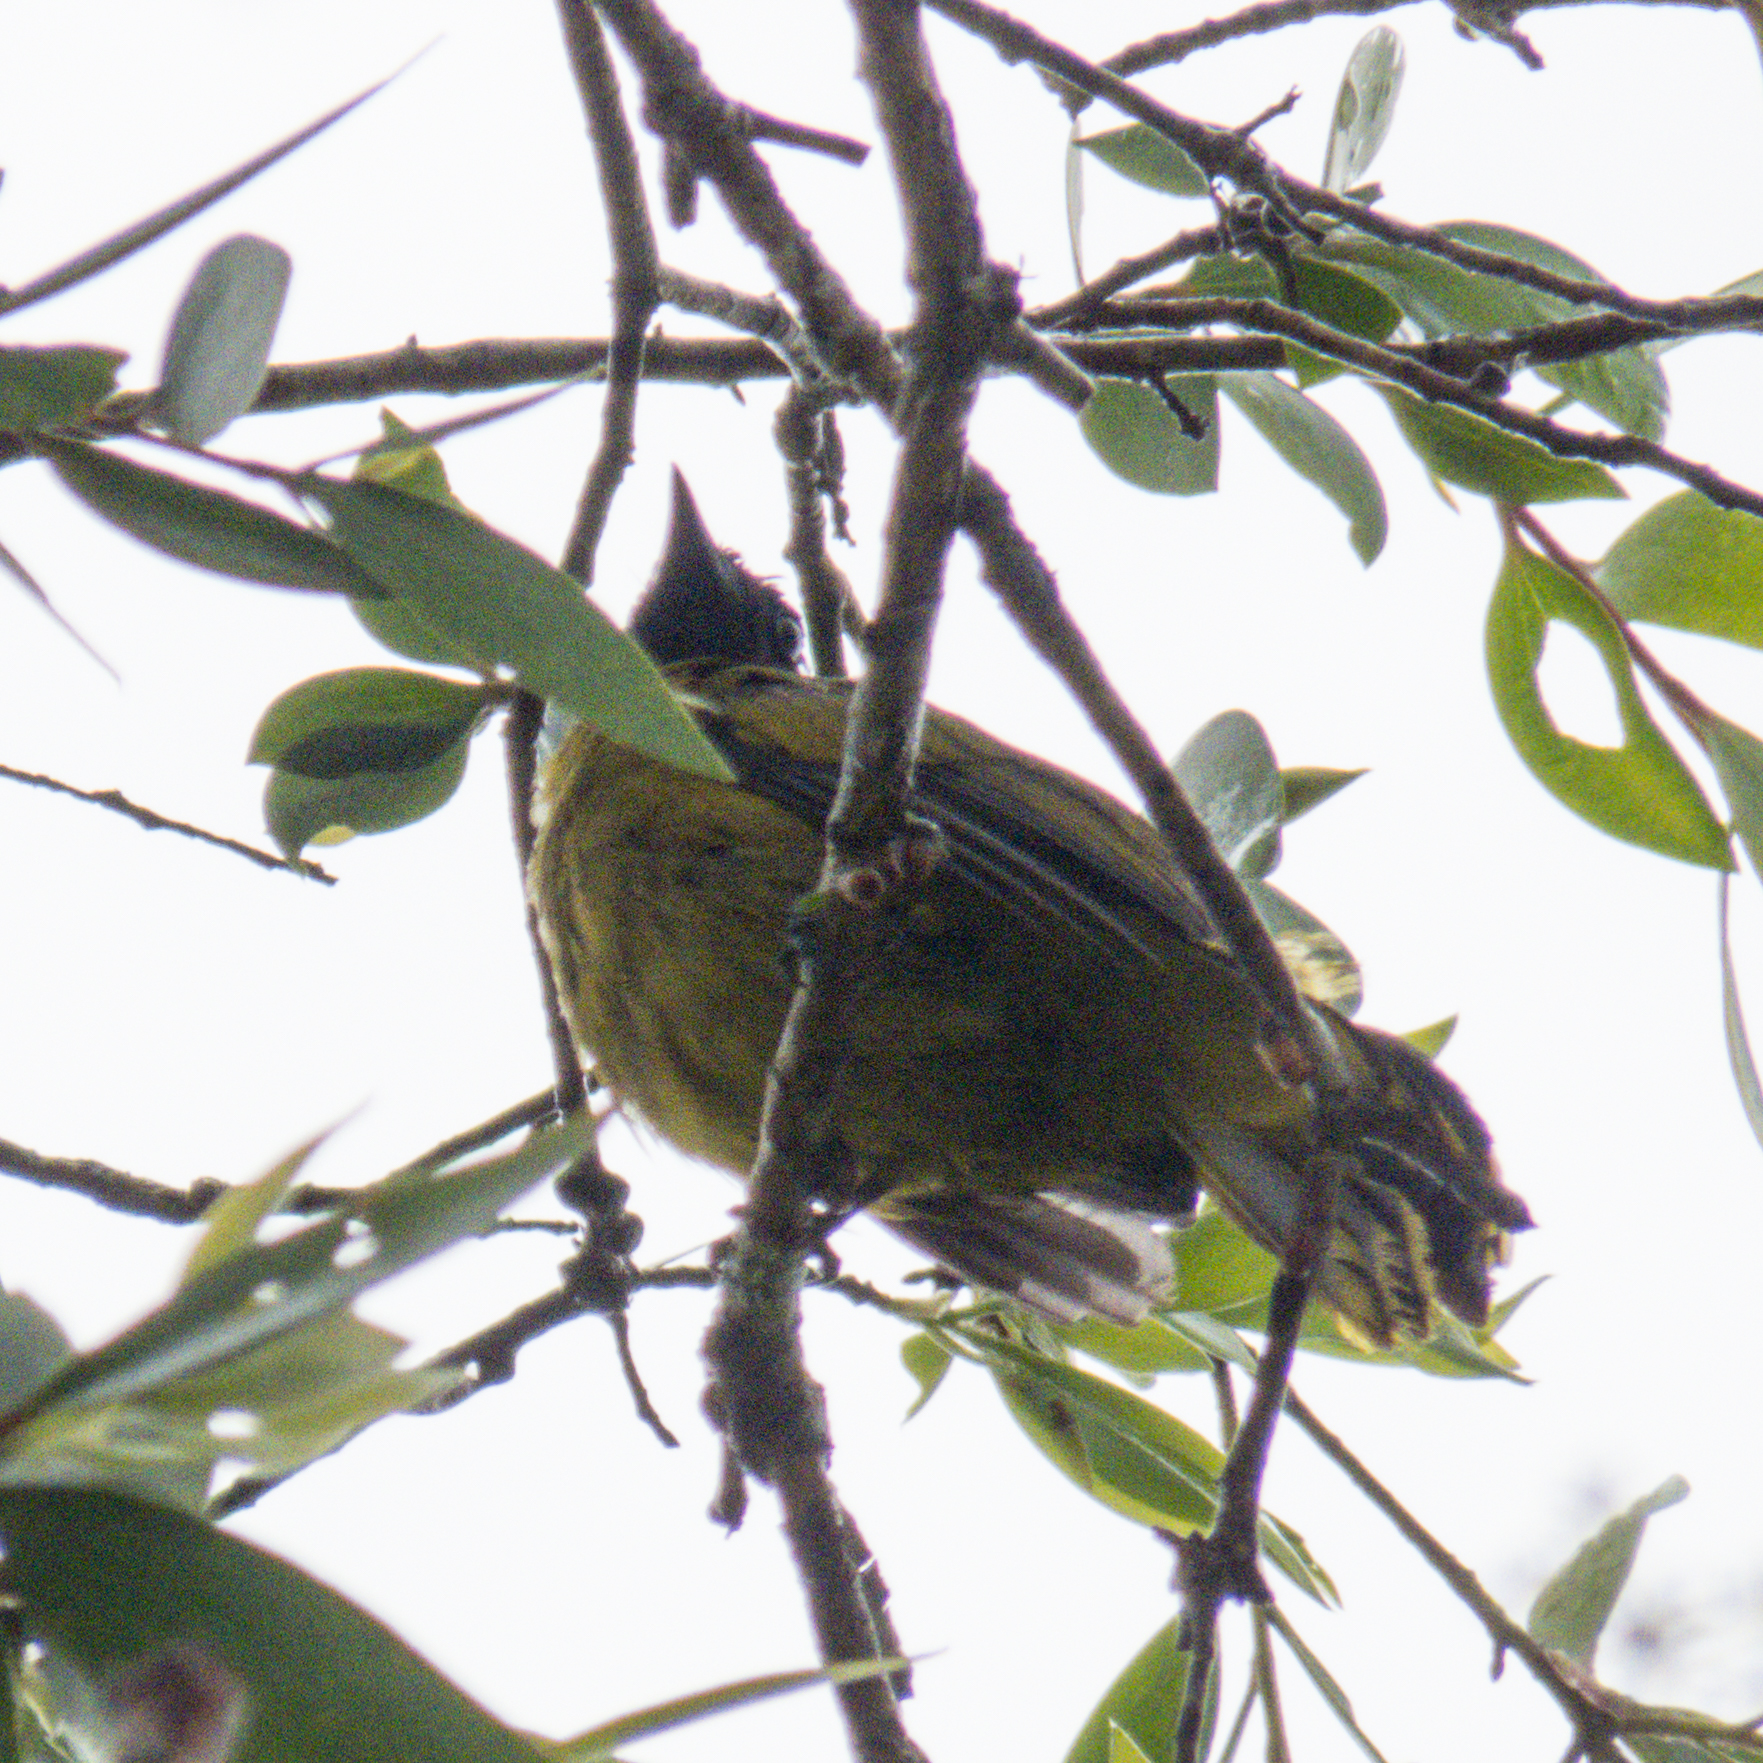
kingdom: Animalia
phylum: Chordata
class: Aves
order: Passeriformes
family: Pycnonotidae
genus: Microtarsus
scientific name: Microtarsus
